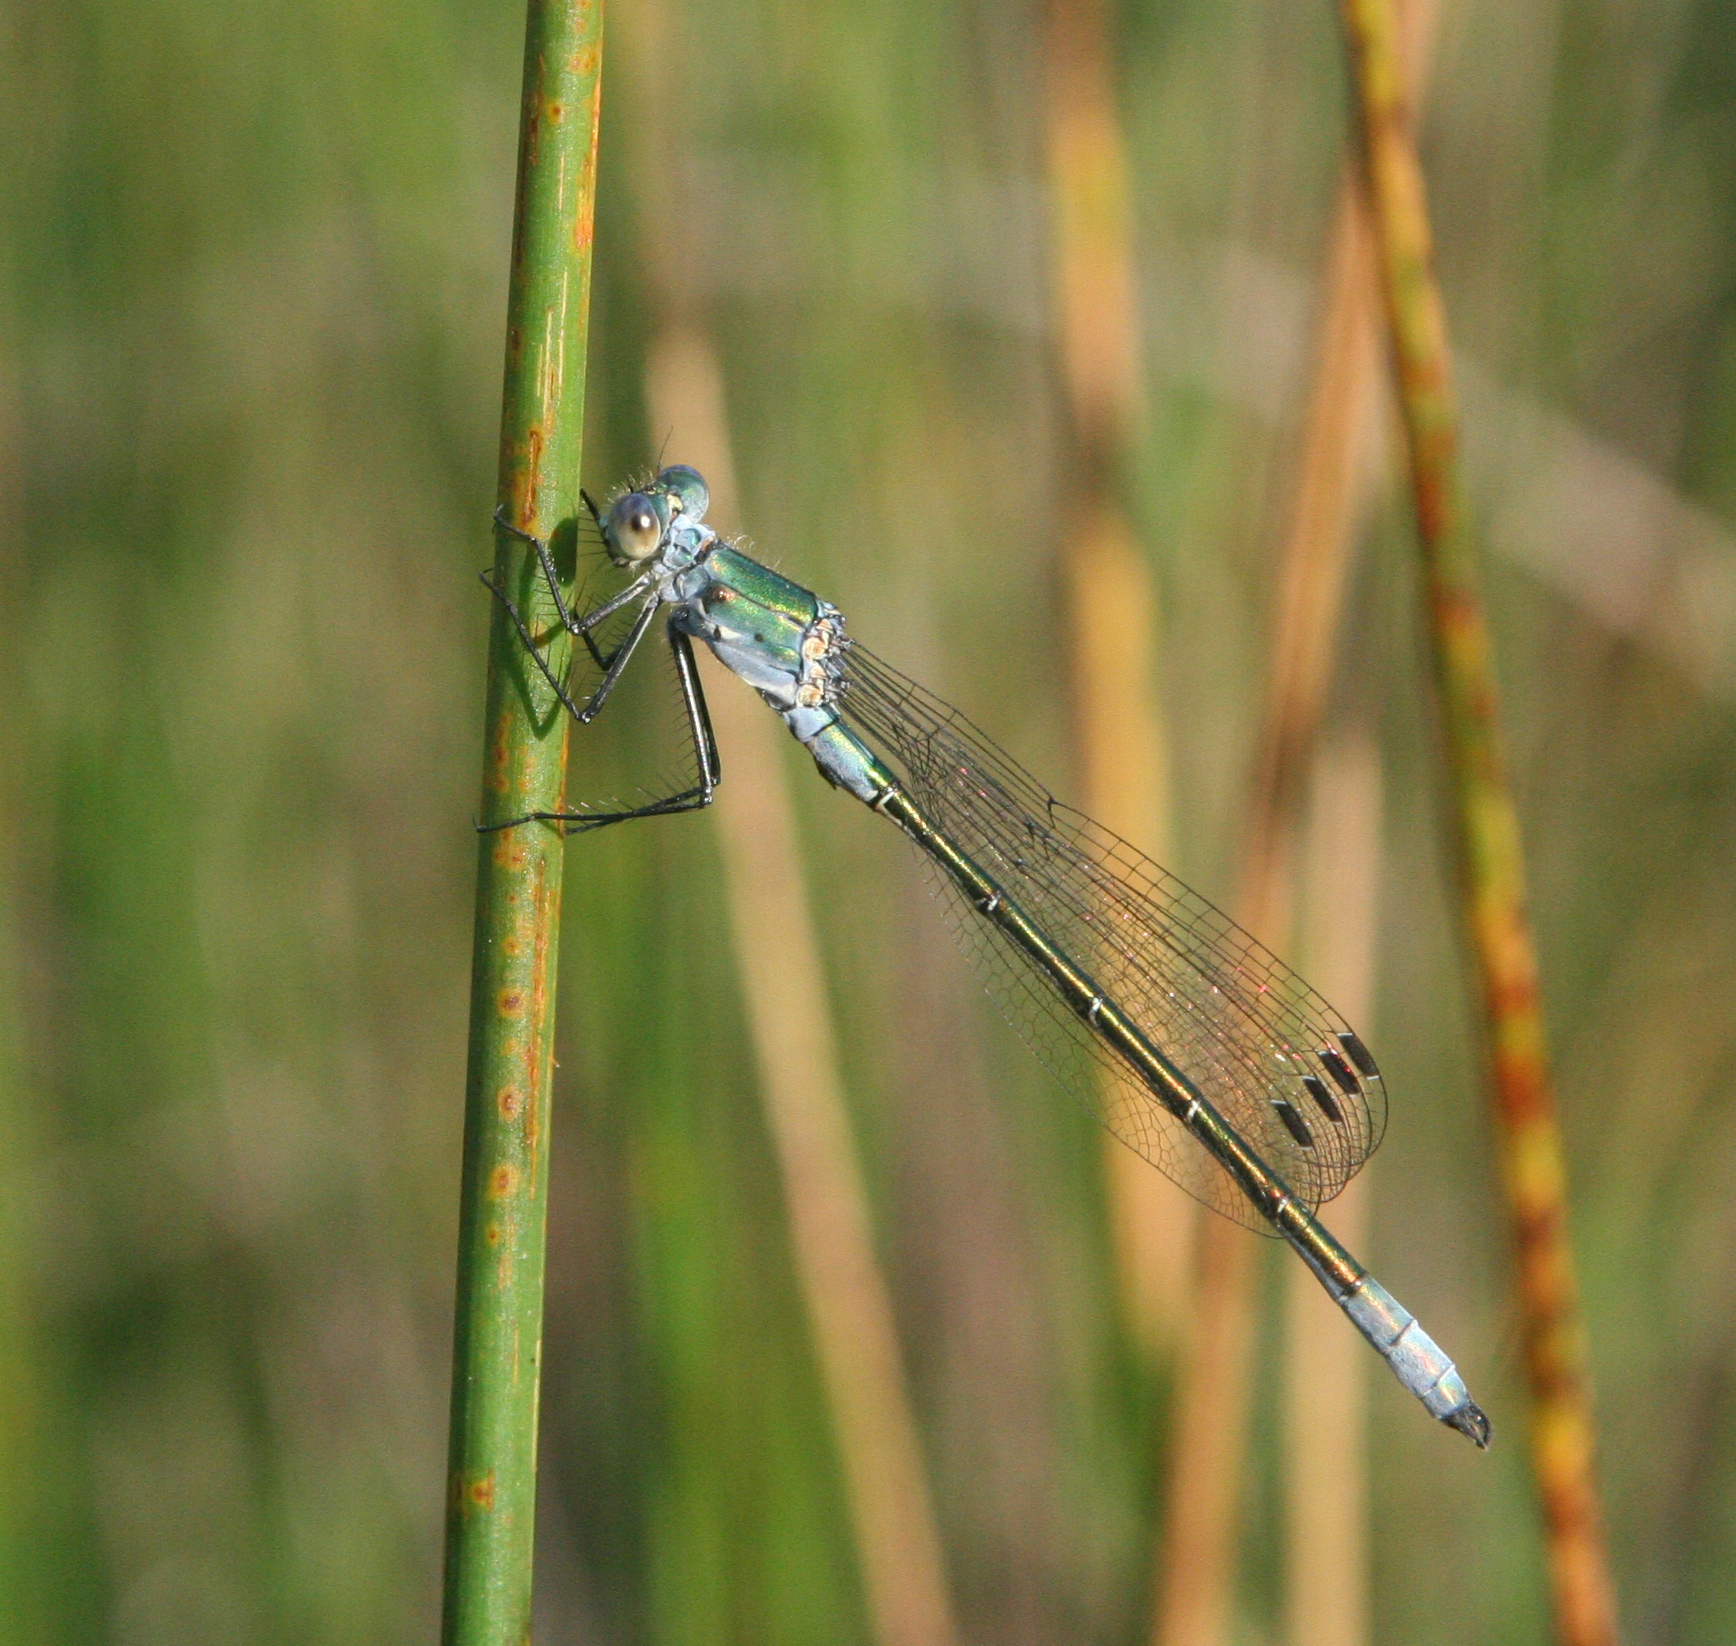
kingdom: Animalia
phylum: Arthropoda
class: Insecta
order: Odonata
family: Lestidae
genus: Lestes
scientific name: Lestes dryas
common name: Scarce emerald damselfly
